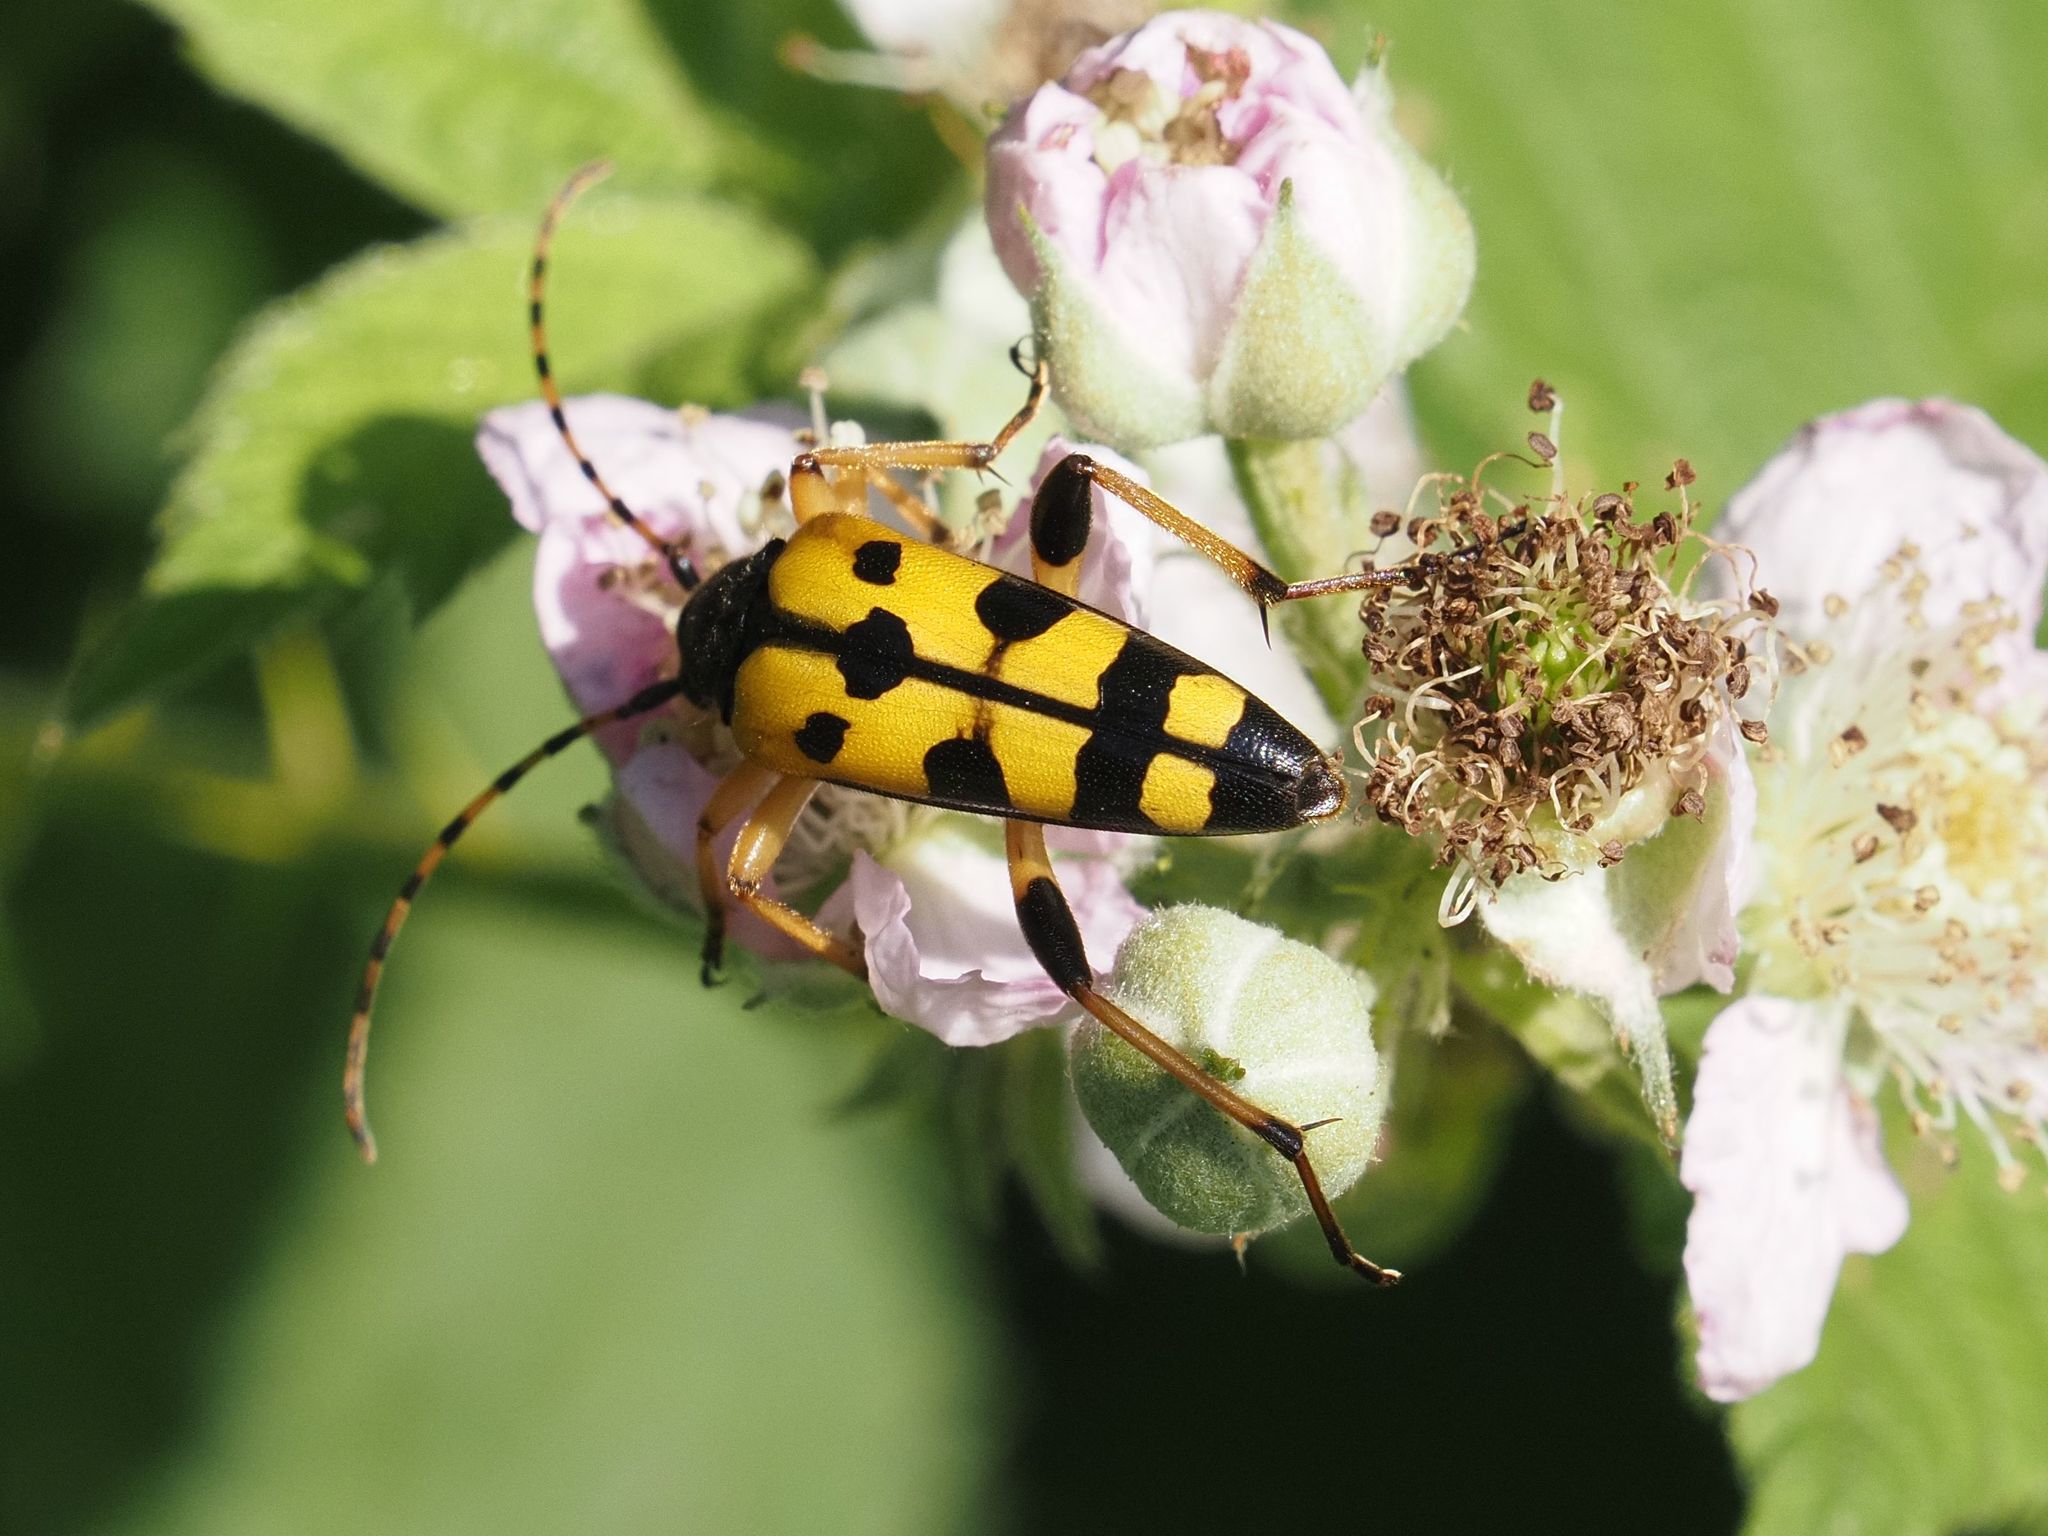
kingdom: Animalia
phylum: Arthropoda
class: Insecta
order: Coleoptera
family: Cerambycidae
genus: Rutpela
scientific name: Rutpela maculata
